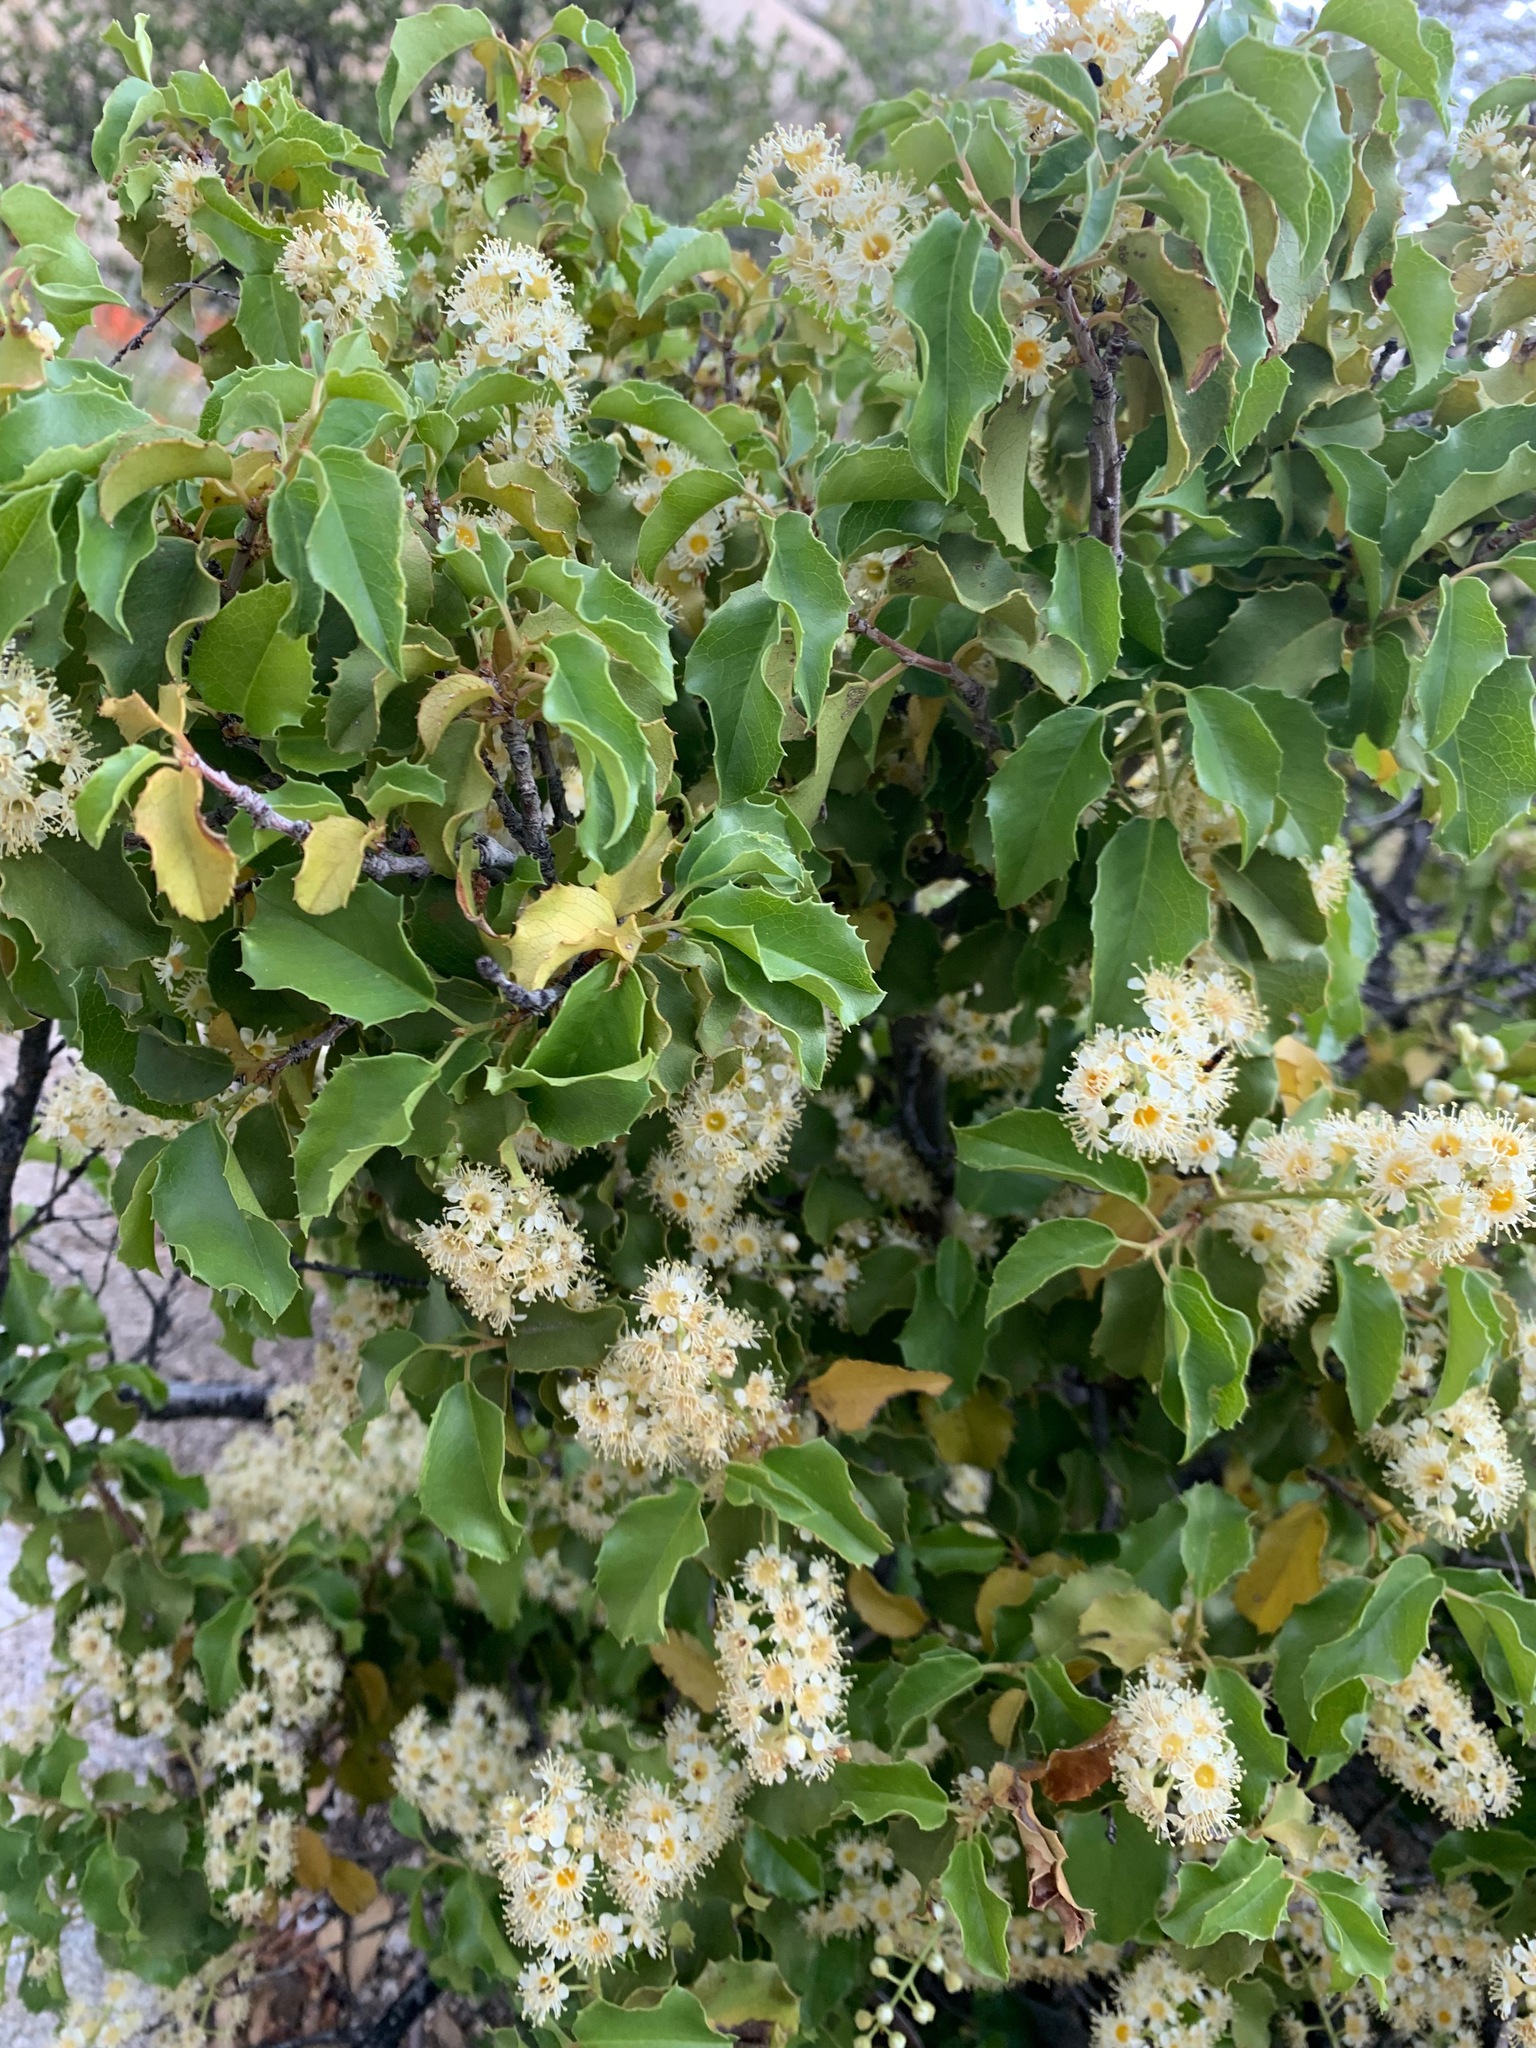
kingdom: Plantae
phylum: Tracheophyta
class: Magnoliopsida
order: Rosales
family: Rosaceae
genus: Prunus
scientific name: Prunus ilicifolia
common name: Hollyleaf cherry
